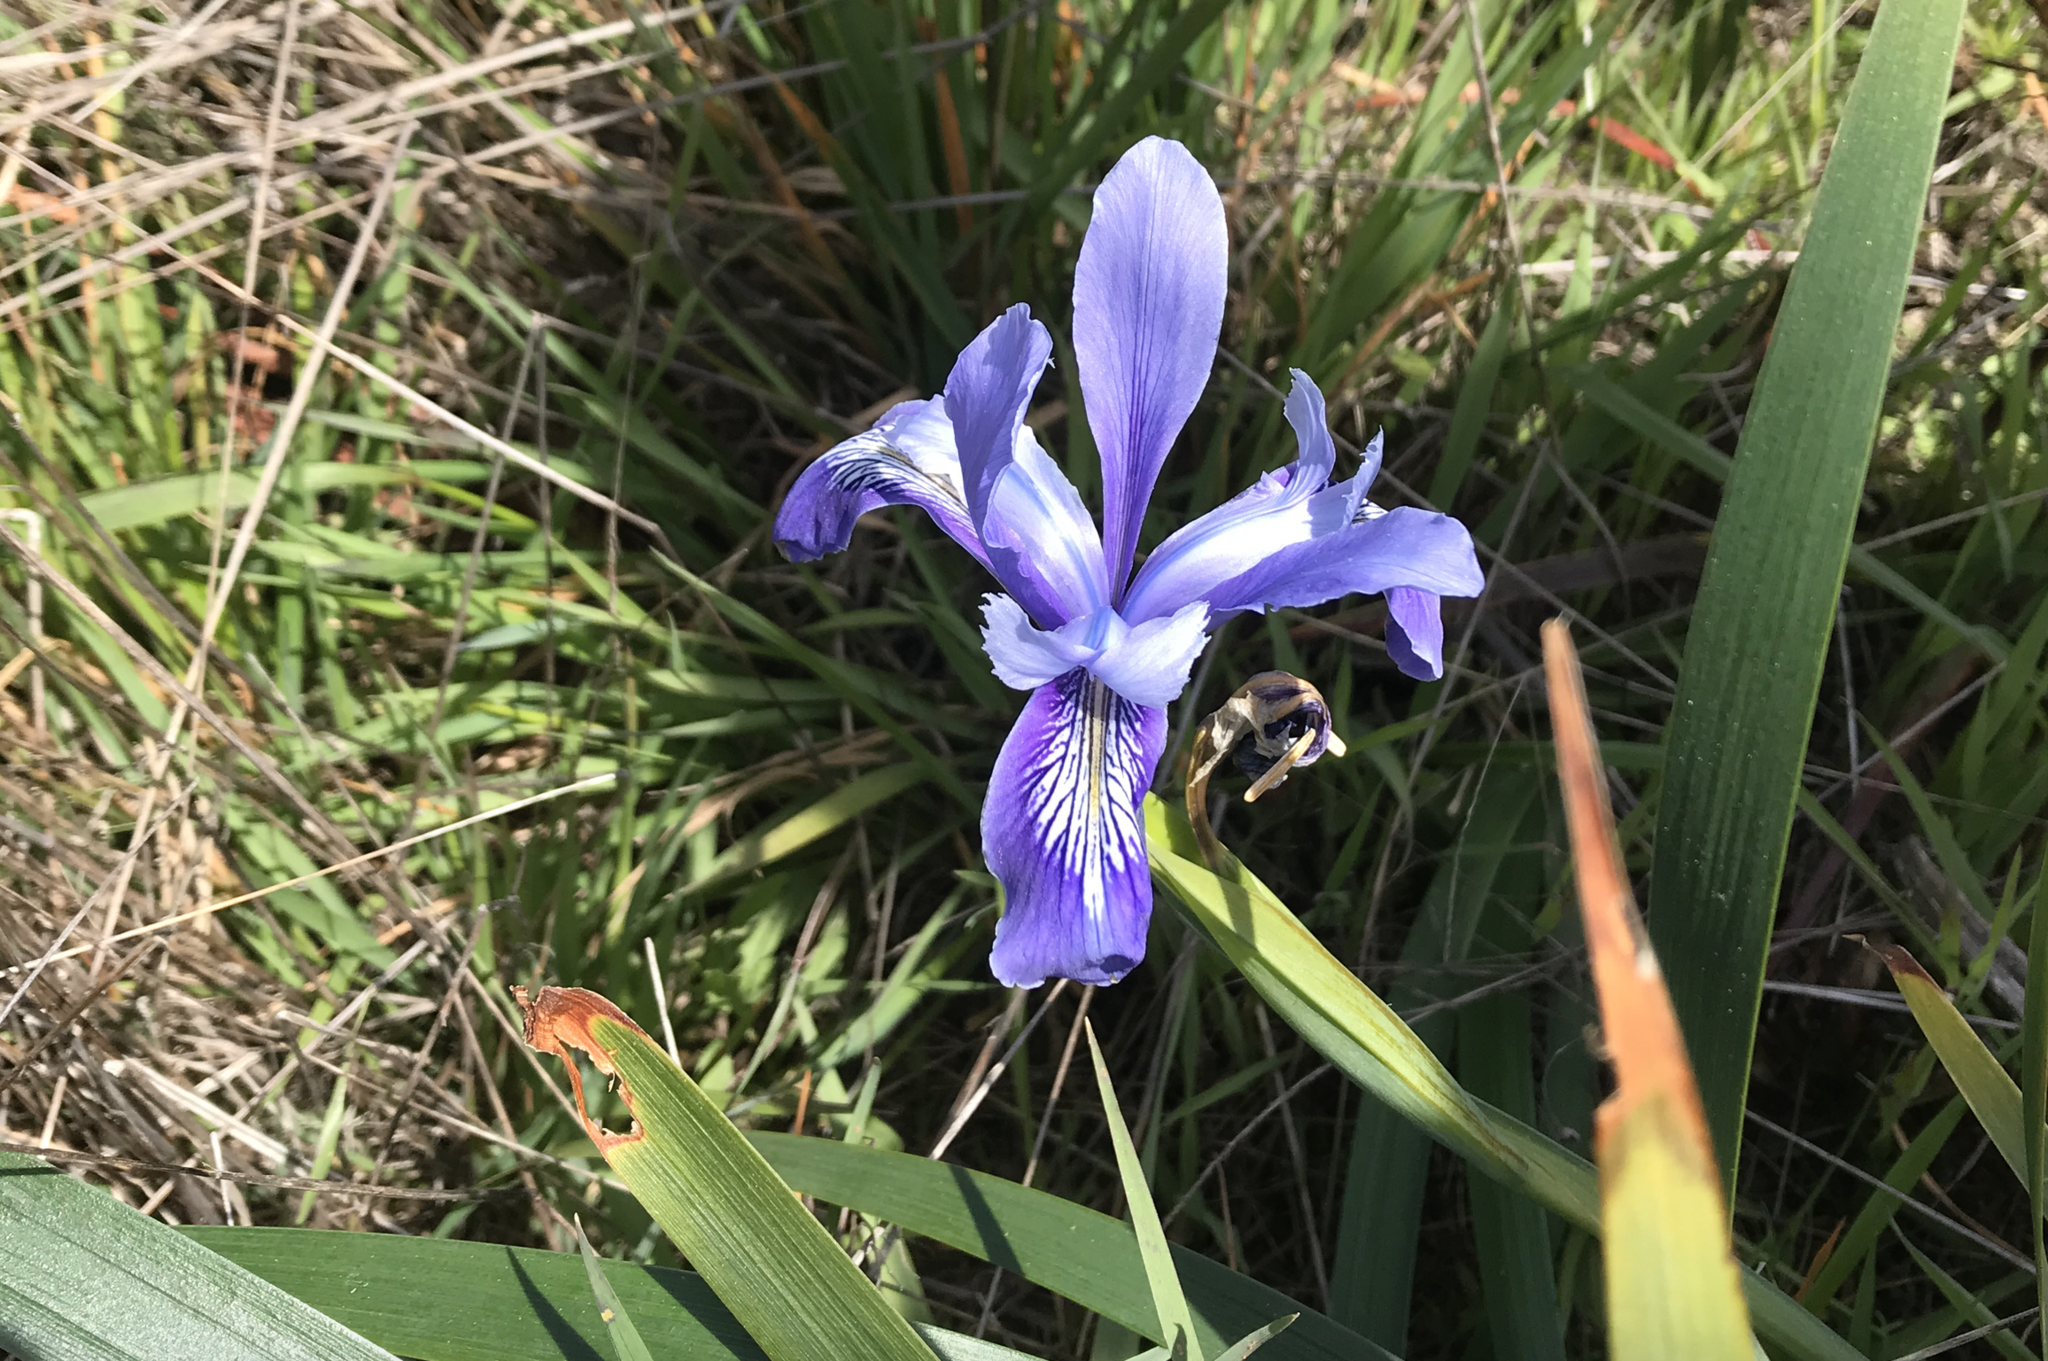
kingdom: Plantae
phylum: Tracheophyta
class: Liliopsida
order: Asparagales
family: Iridaceae
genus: Iris
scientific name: Iris douglasiana
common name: Marin iris
